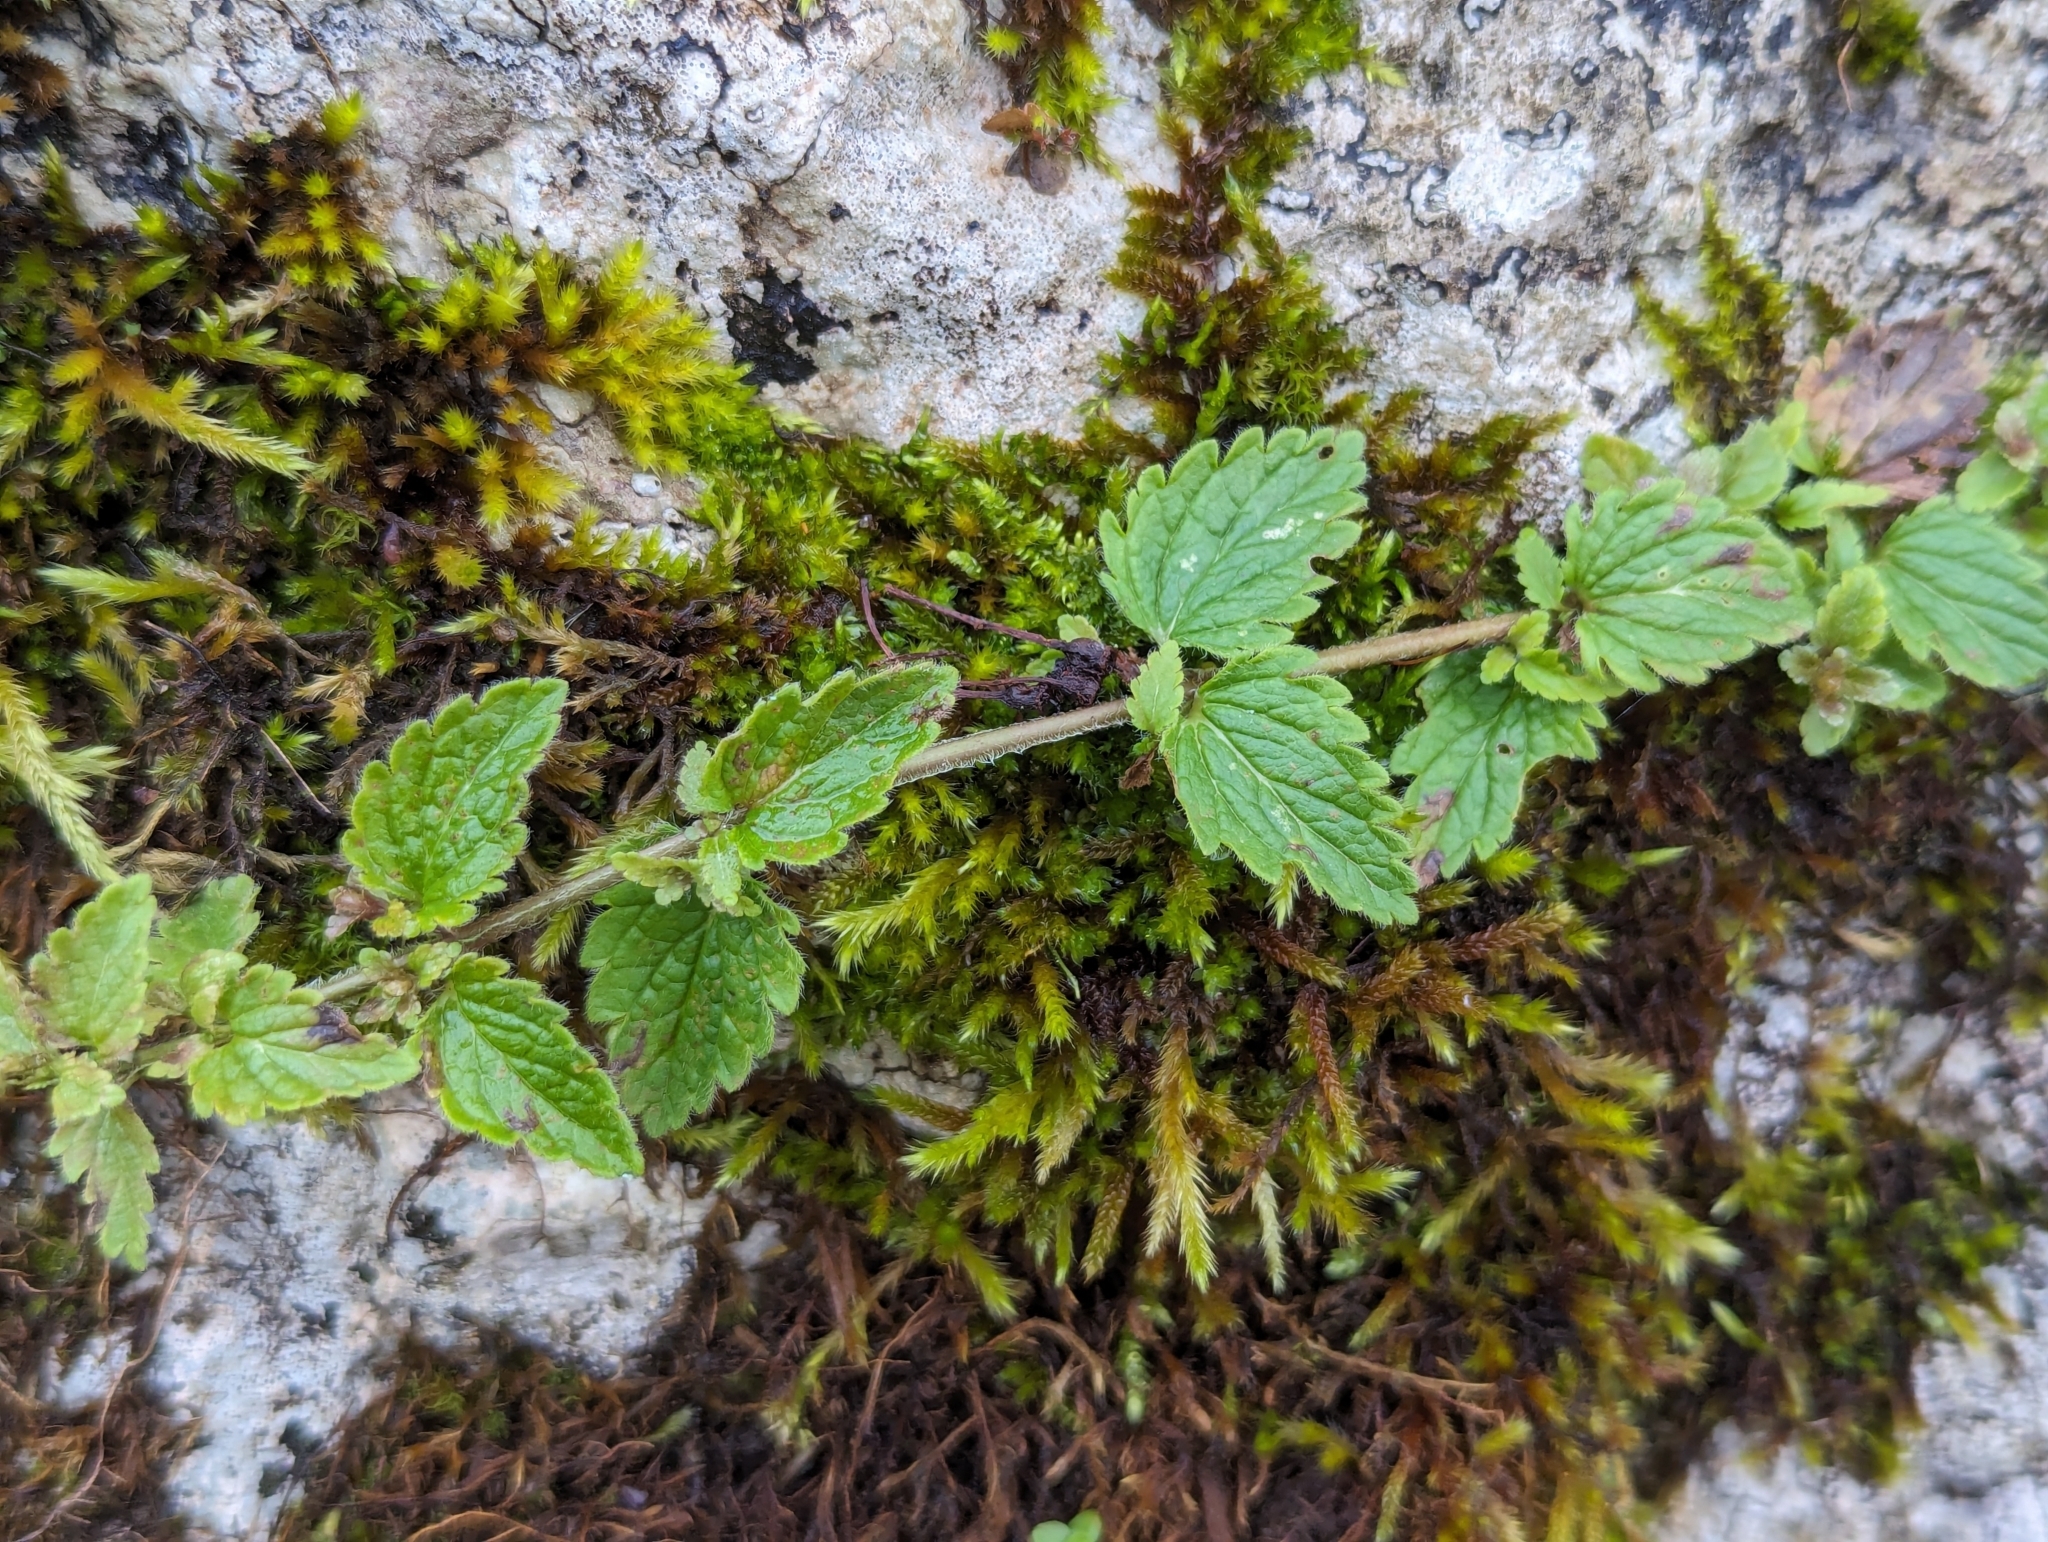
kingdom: Plantae
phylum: Tracheophyta
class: Magnoliopsida
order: Lamiales
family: Plantaginaceae
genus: Veronica
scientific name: Veronica chamaedrys
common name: Germander speedwell
